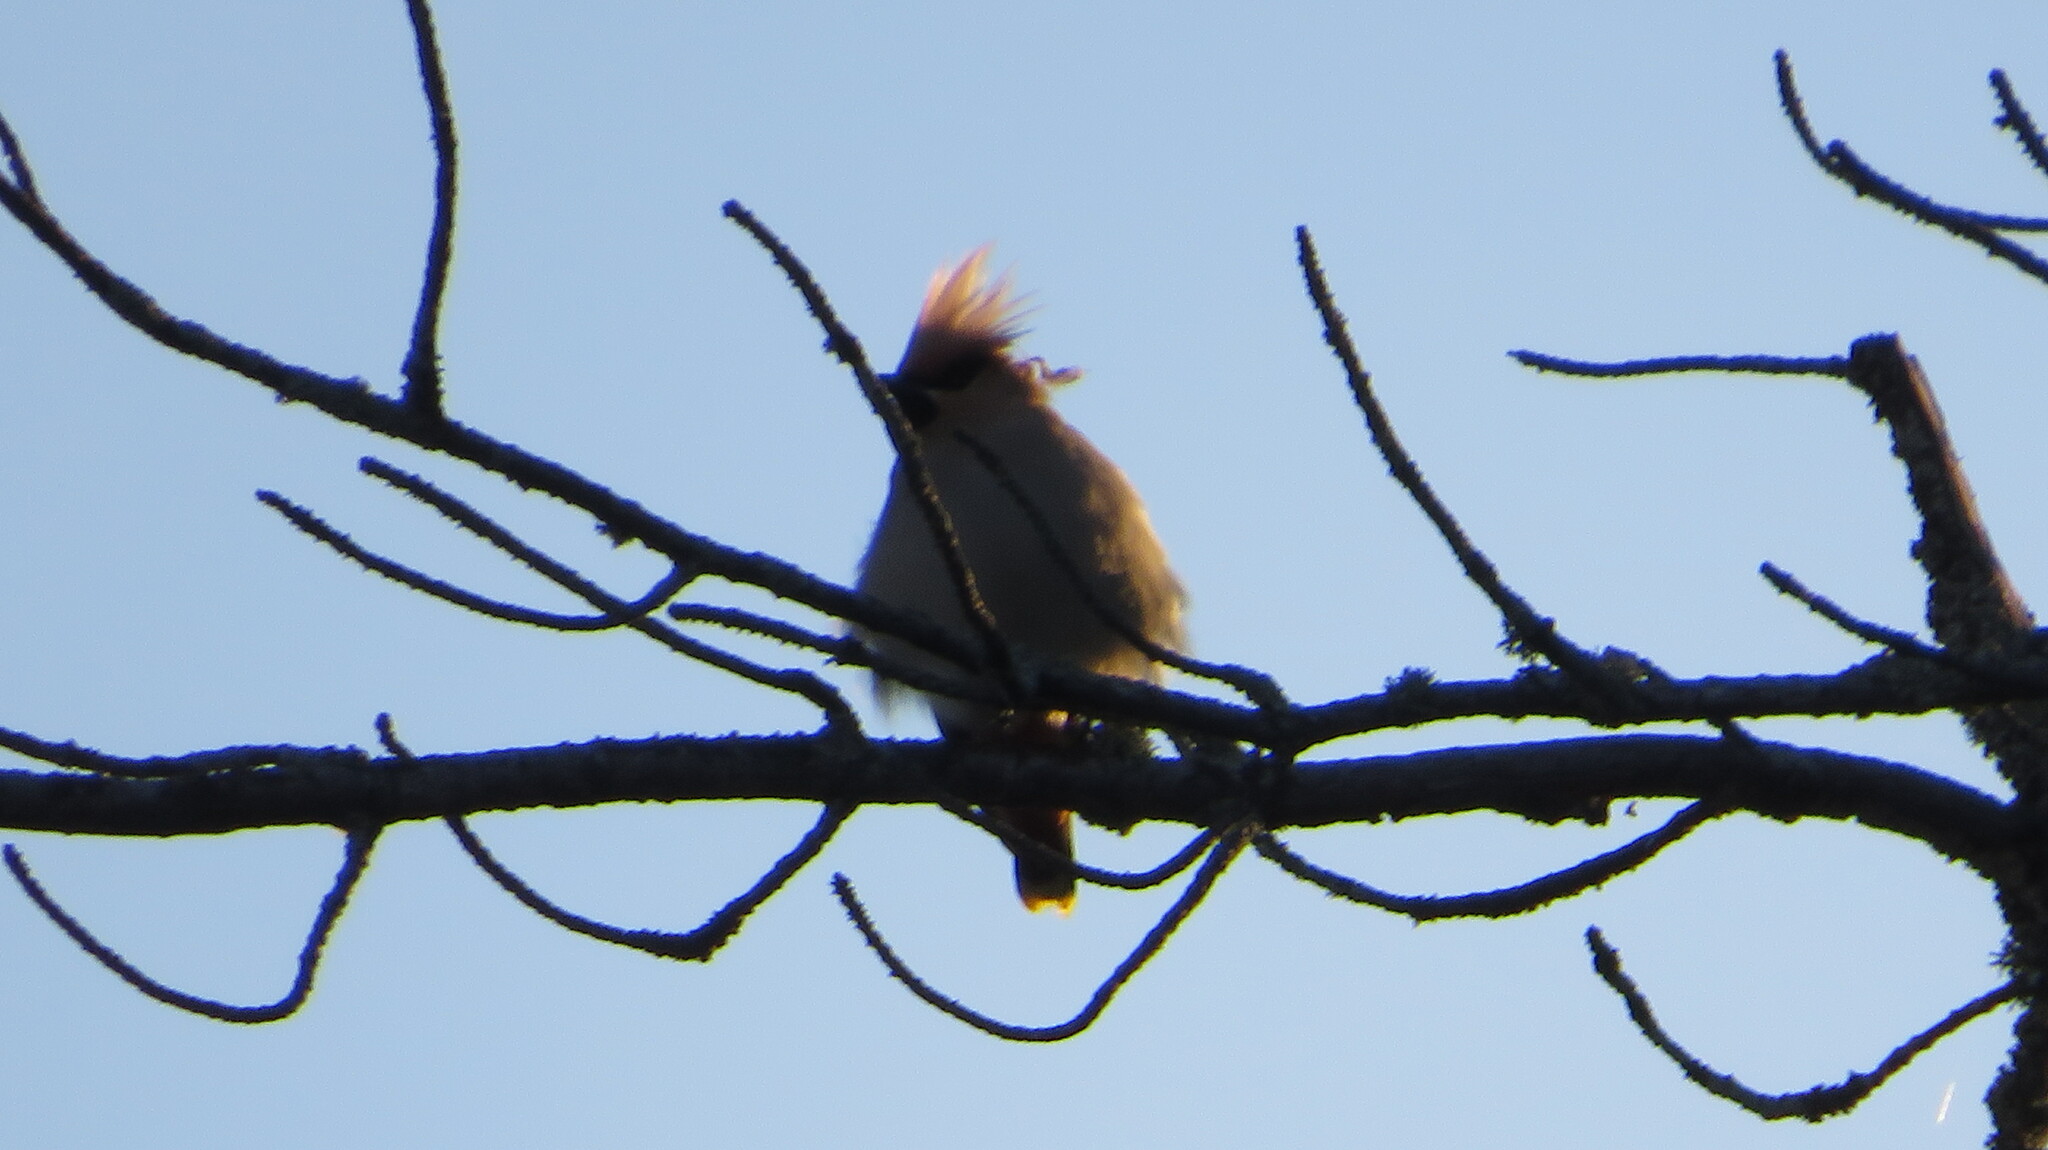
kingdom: Animalia
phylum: Chordata
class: Aves
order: Passeriformes
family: Bombycillidae
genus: Bombycilla
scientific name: Bombycilla garrulus
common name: Bohemian waxwing
